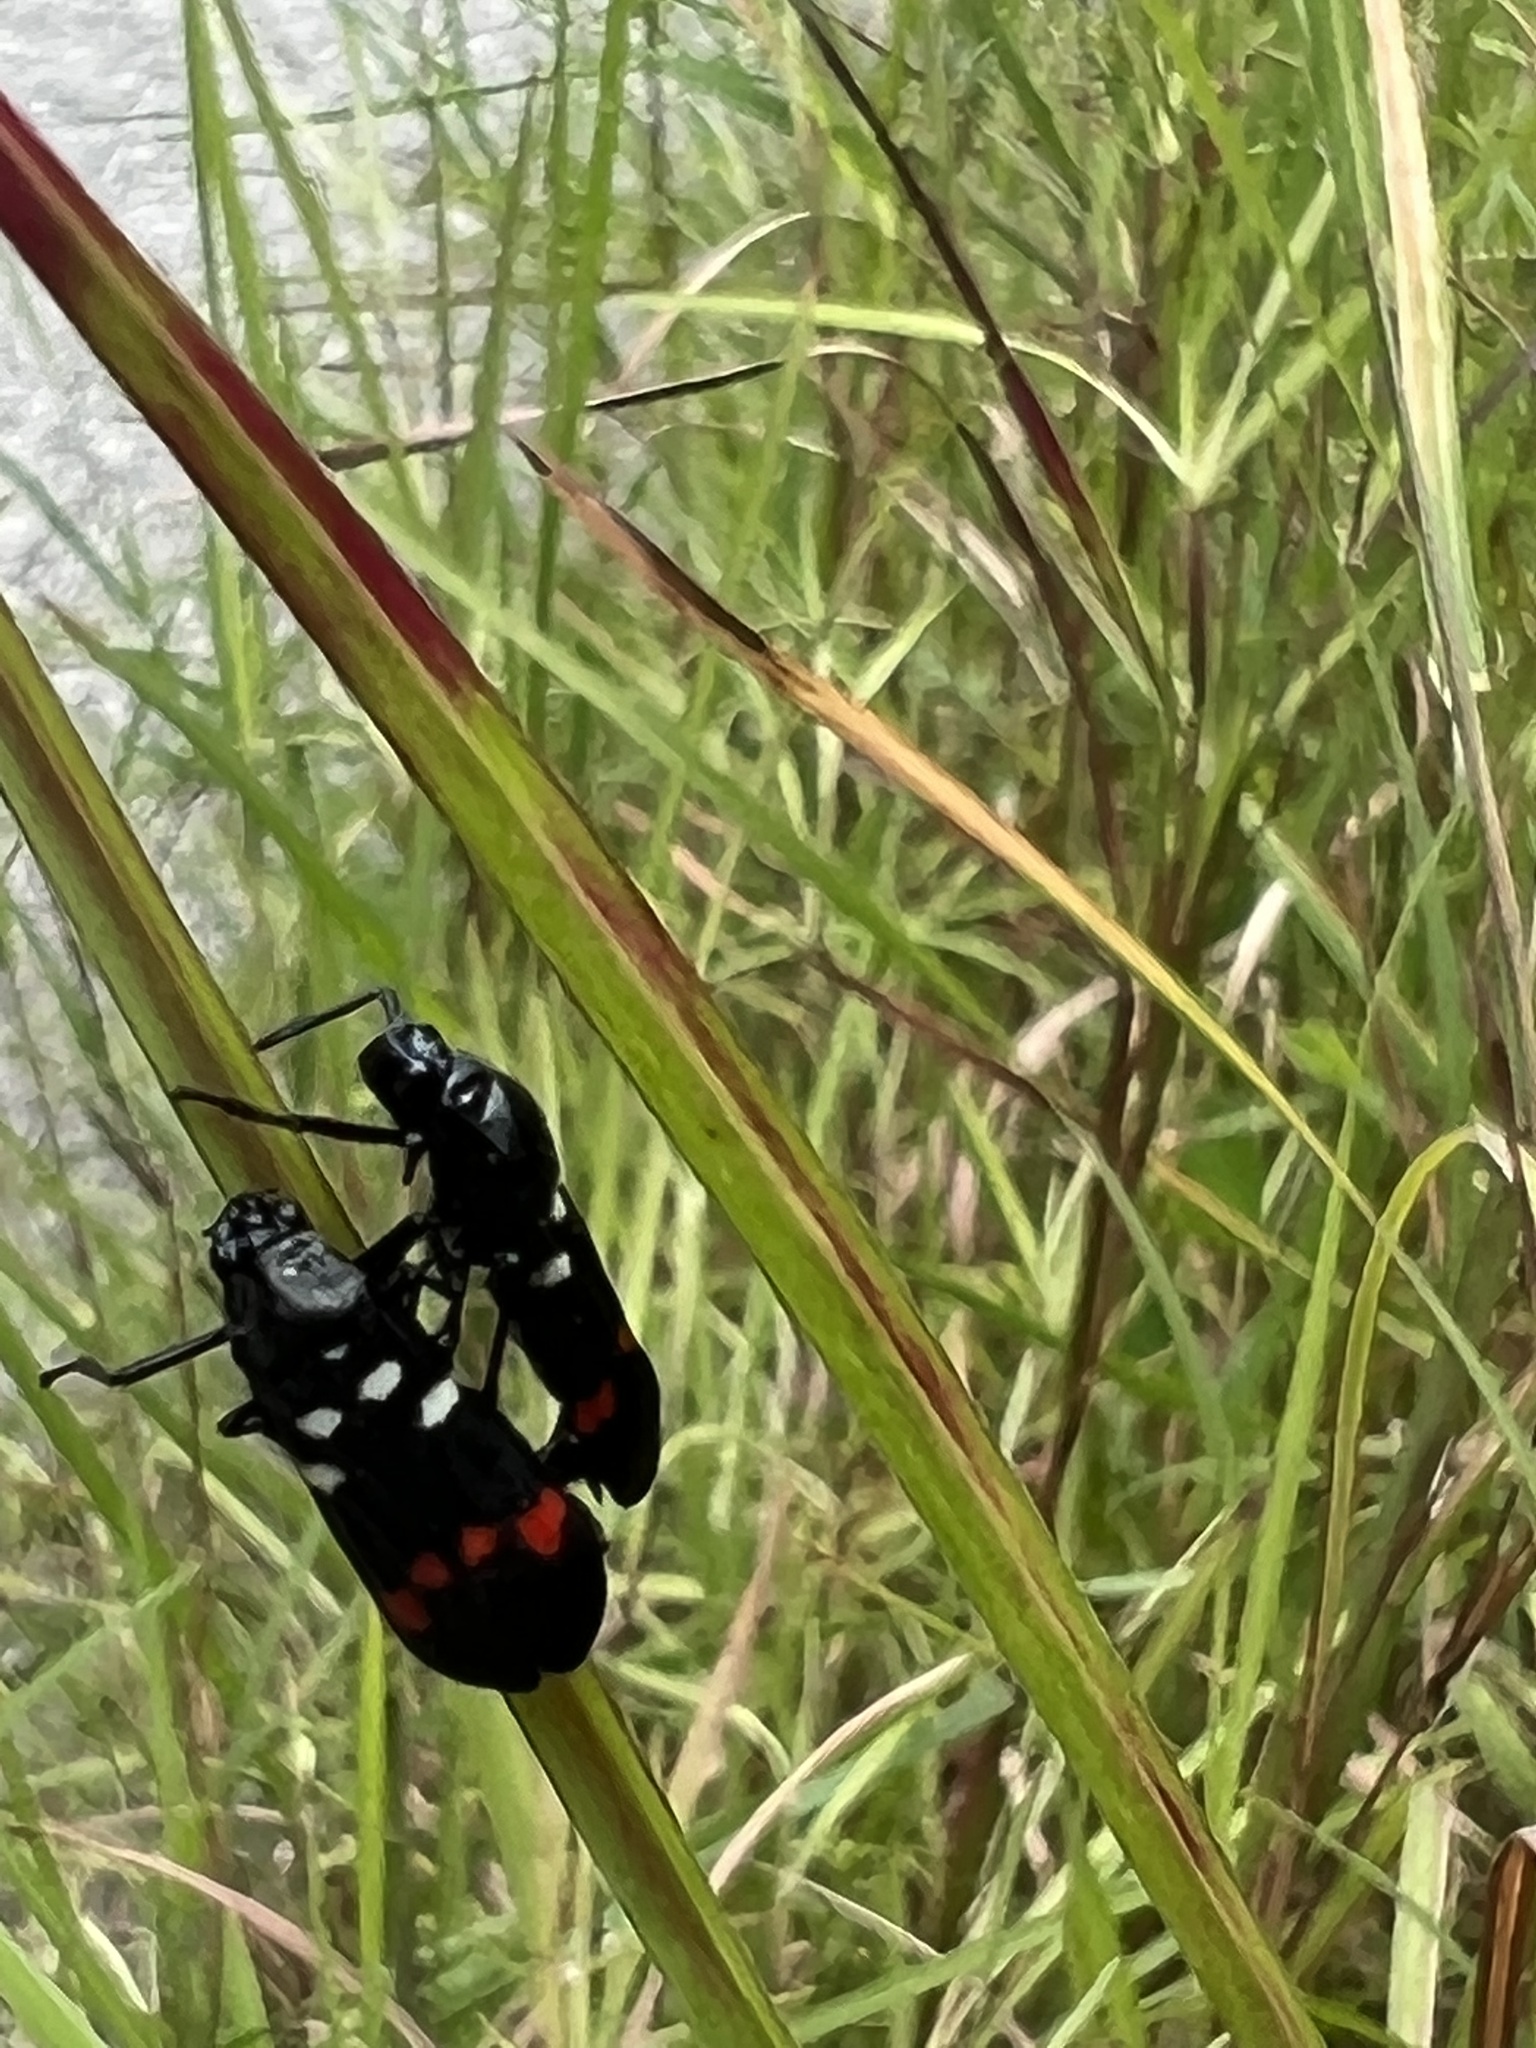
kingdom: Animalia
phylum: Arthropoda
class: Insecta
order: Hemiptera
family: Cercopidae
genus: Callitettix
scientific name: Callitettix versicolor
